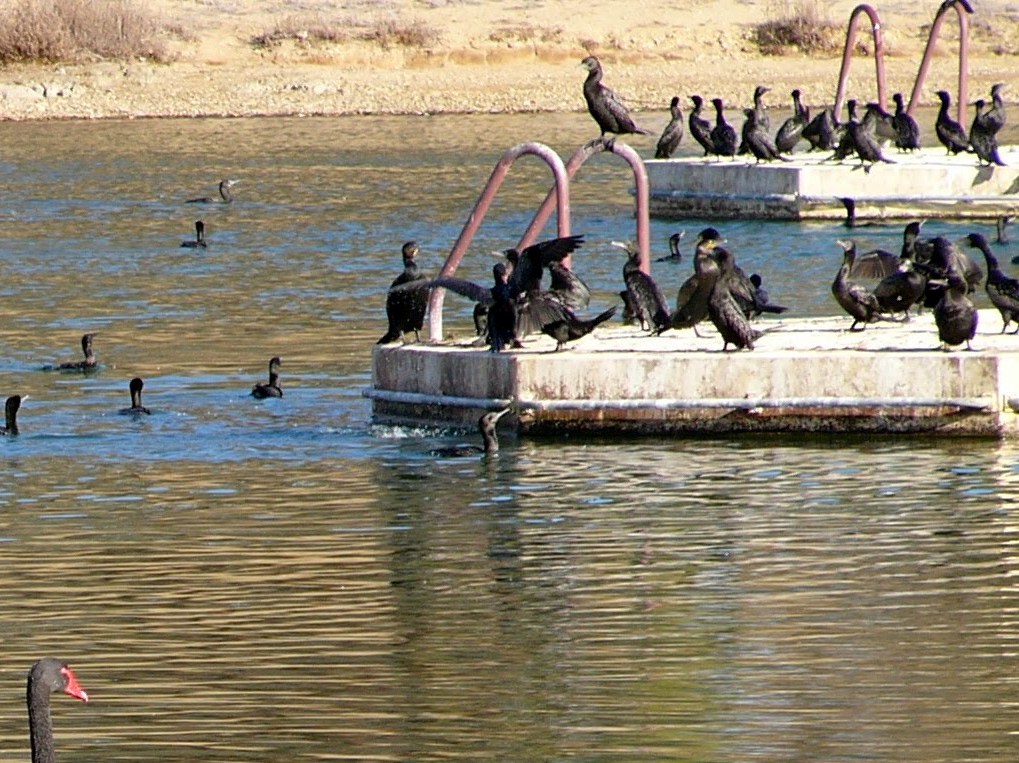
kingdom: Animalia
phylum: Chordata
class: Aves
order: Suliformes
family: Phalacrocoracidae
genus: Phalacrocorax
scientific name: Phalacrocorax carbo
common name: Great cormorant
